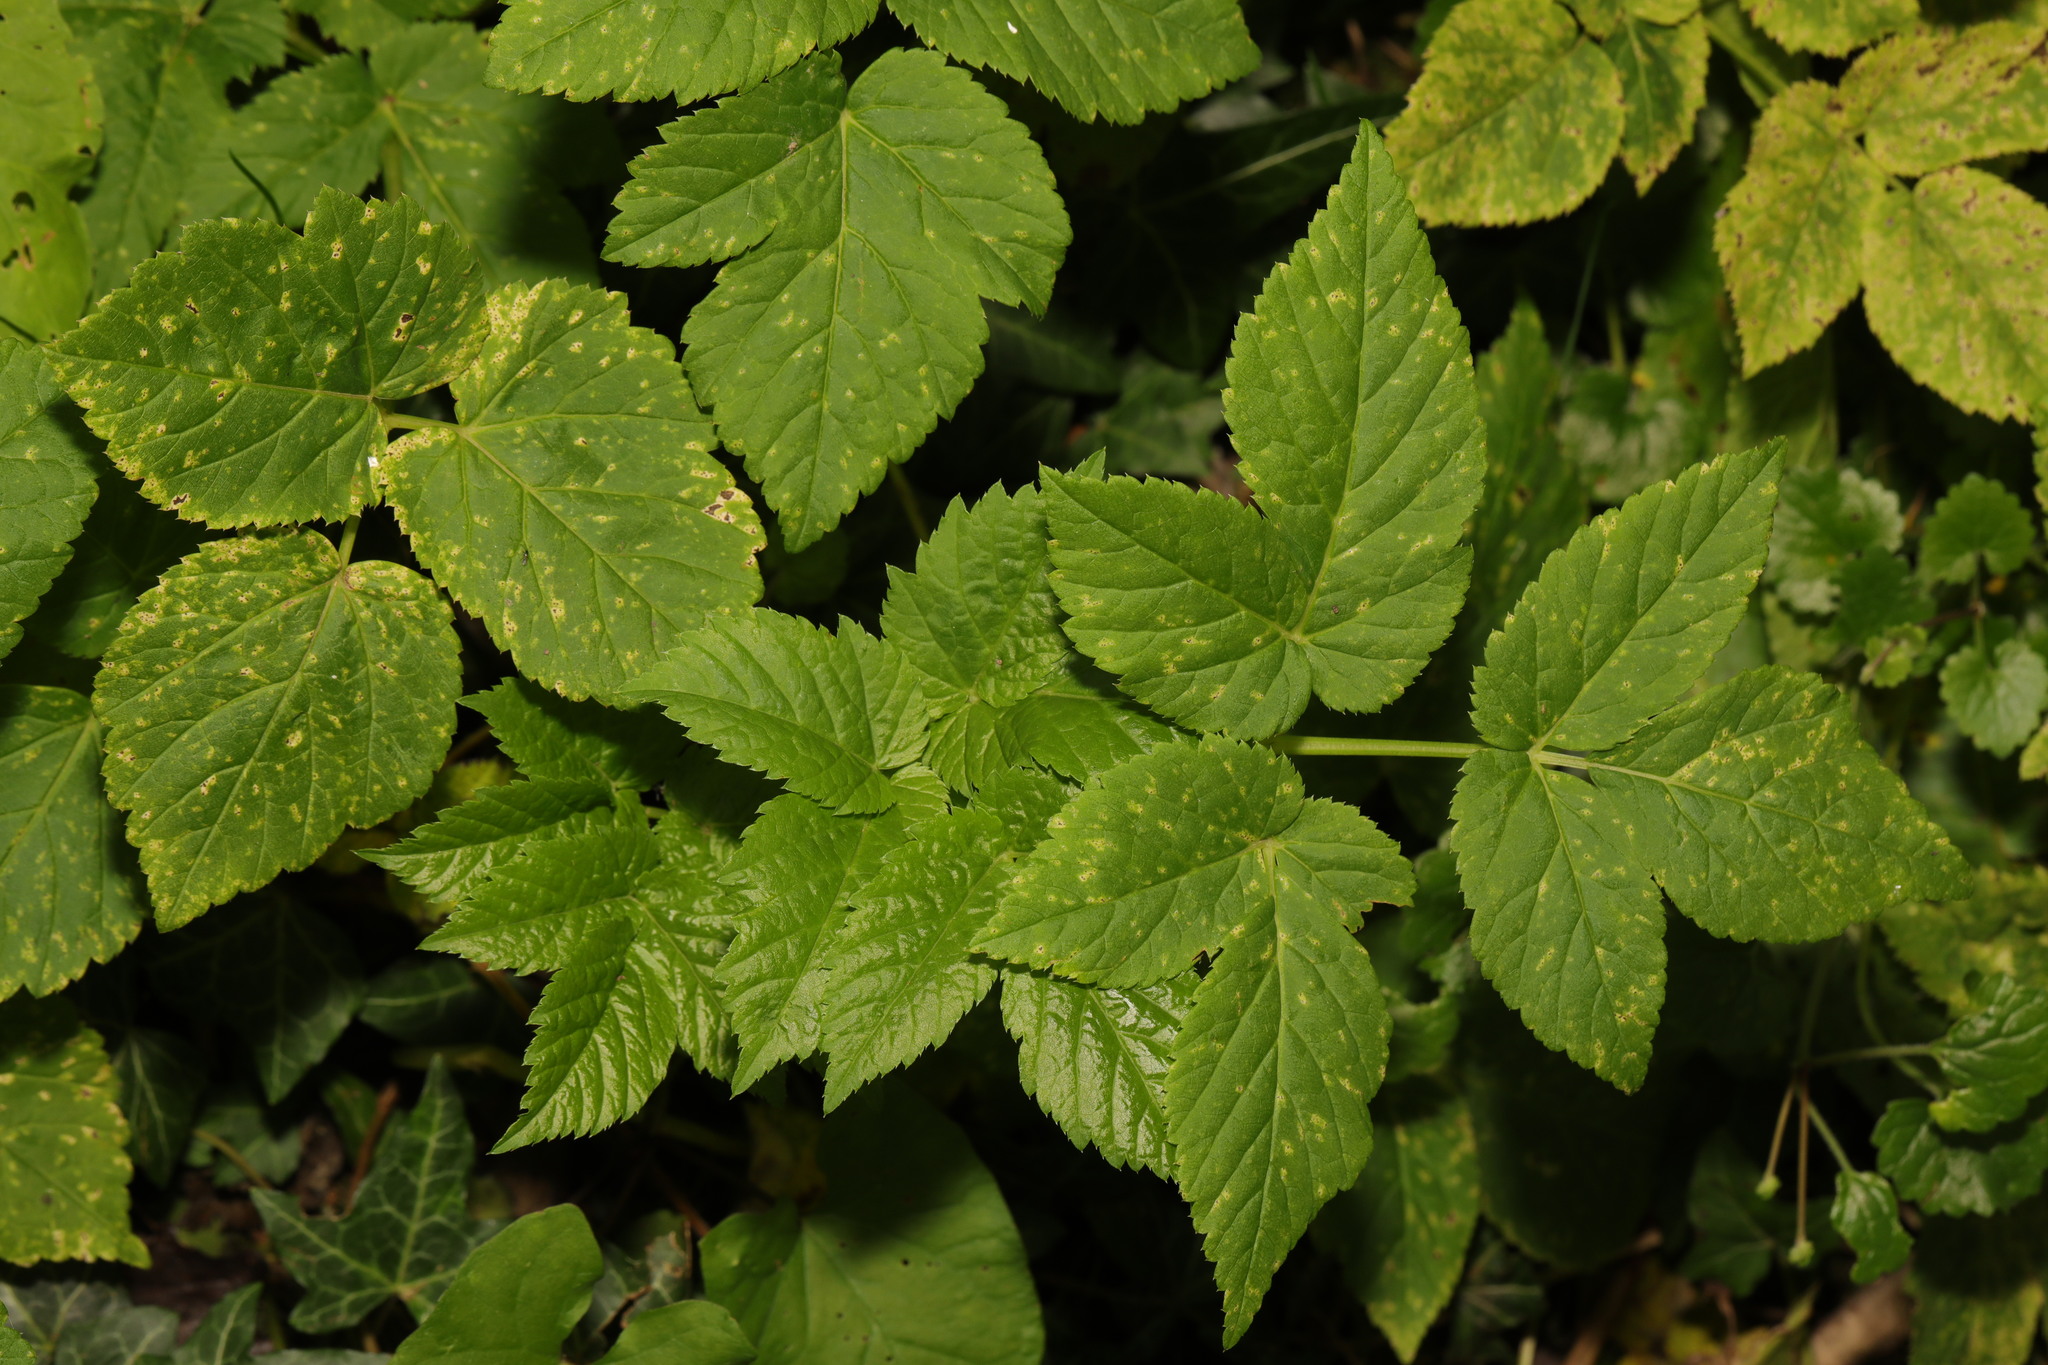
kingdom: Plantae
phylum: Tracheophyta
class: Magnoliopsida
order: Apiales
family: Apiaceae
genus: Aegopodium
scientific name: Aegopodium podagraria
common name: Ground-elder
